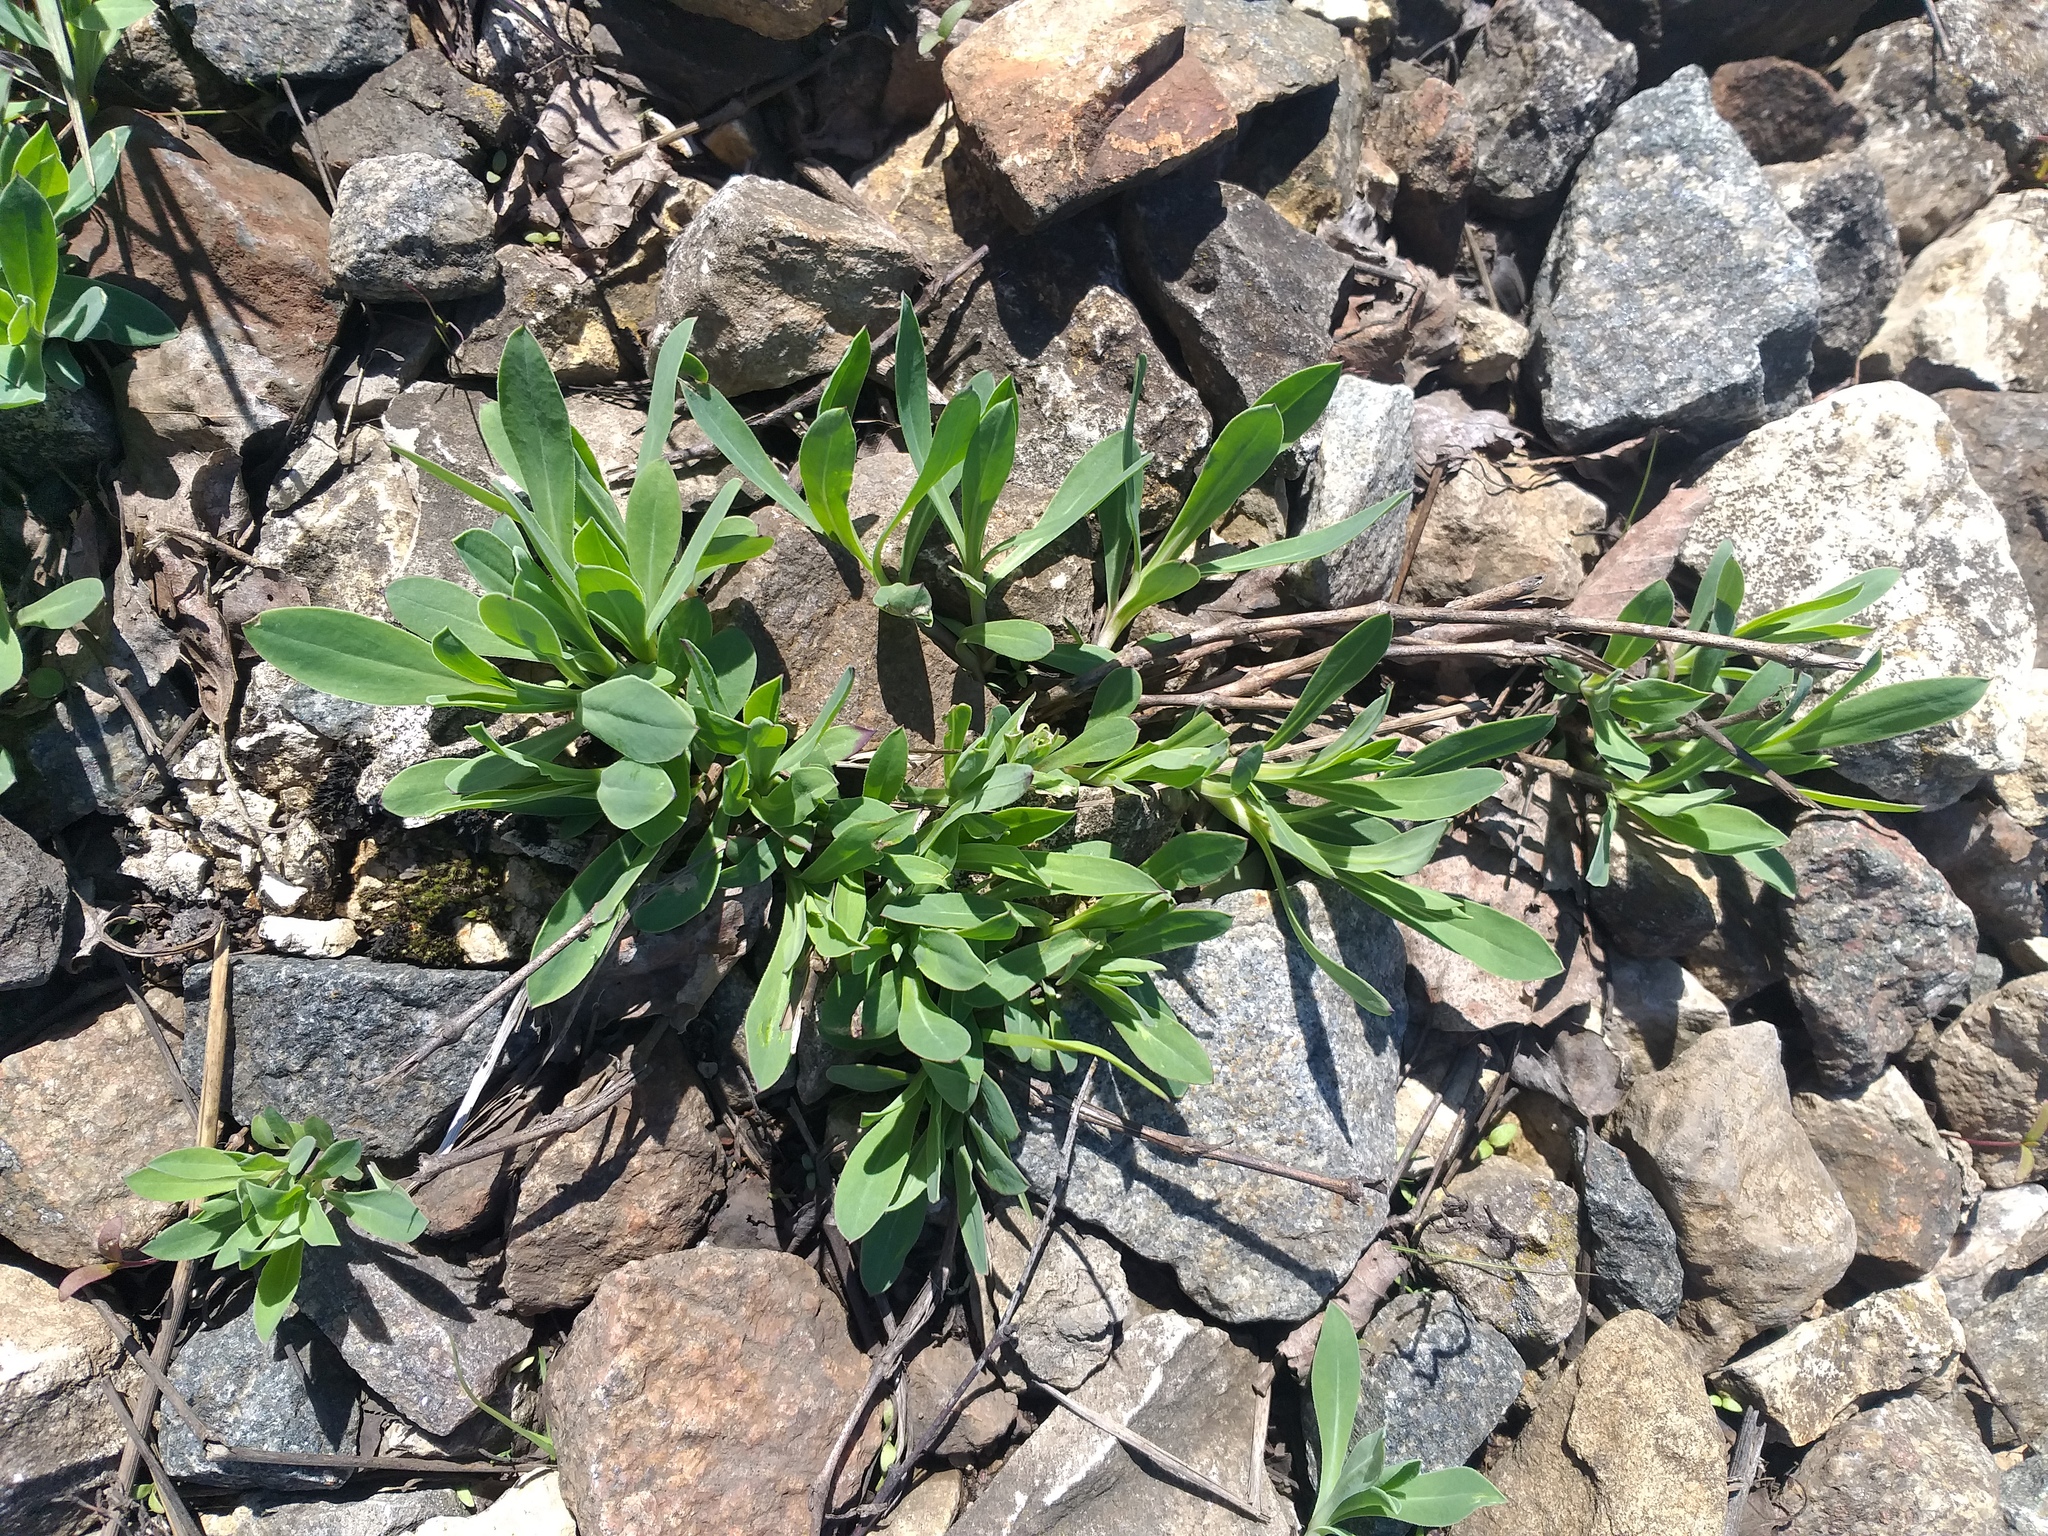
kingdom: Plantae
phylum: Tracheophyta
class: Magnoliopsida
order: Caryophyllales
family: Caryophyllaceae
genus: Silene
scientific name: Silene vulgaris
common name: Bladder campion
